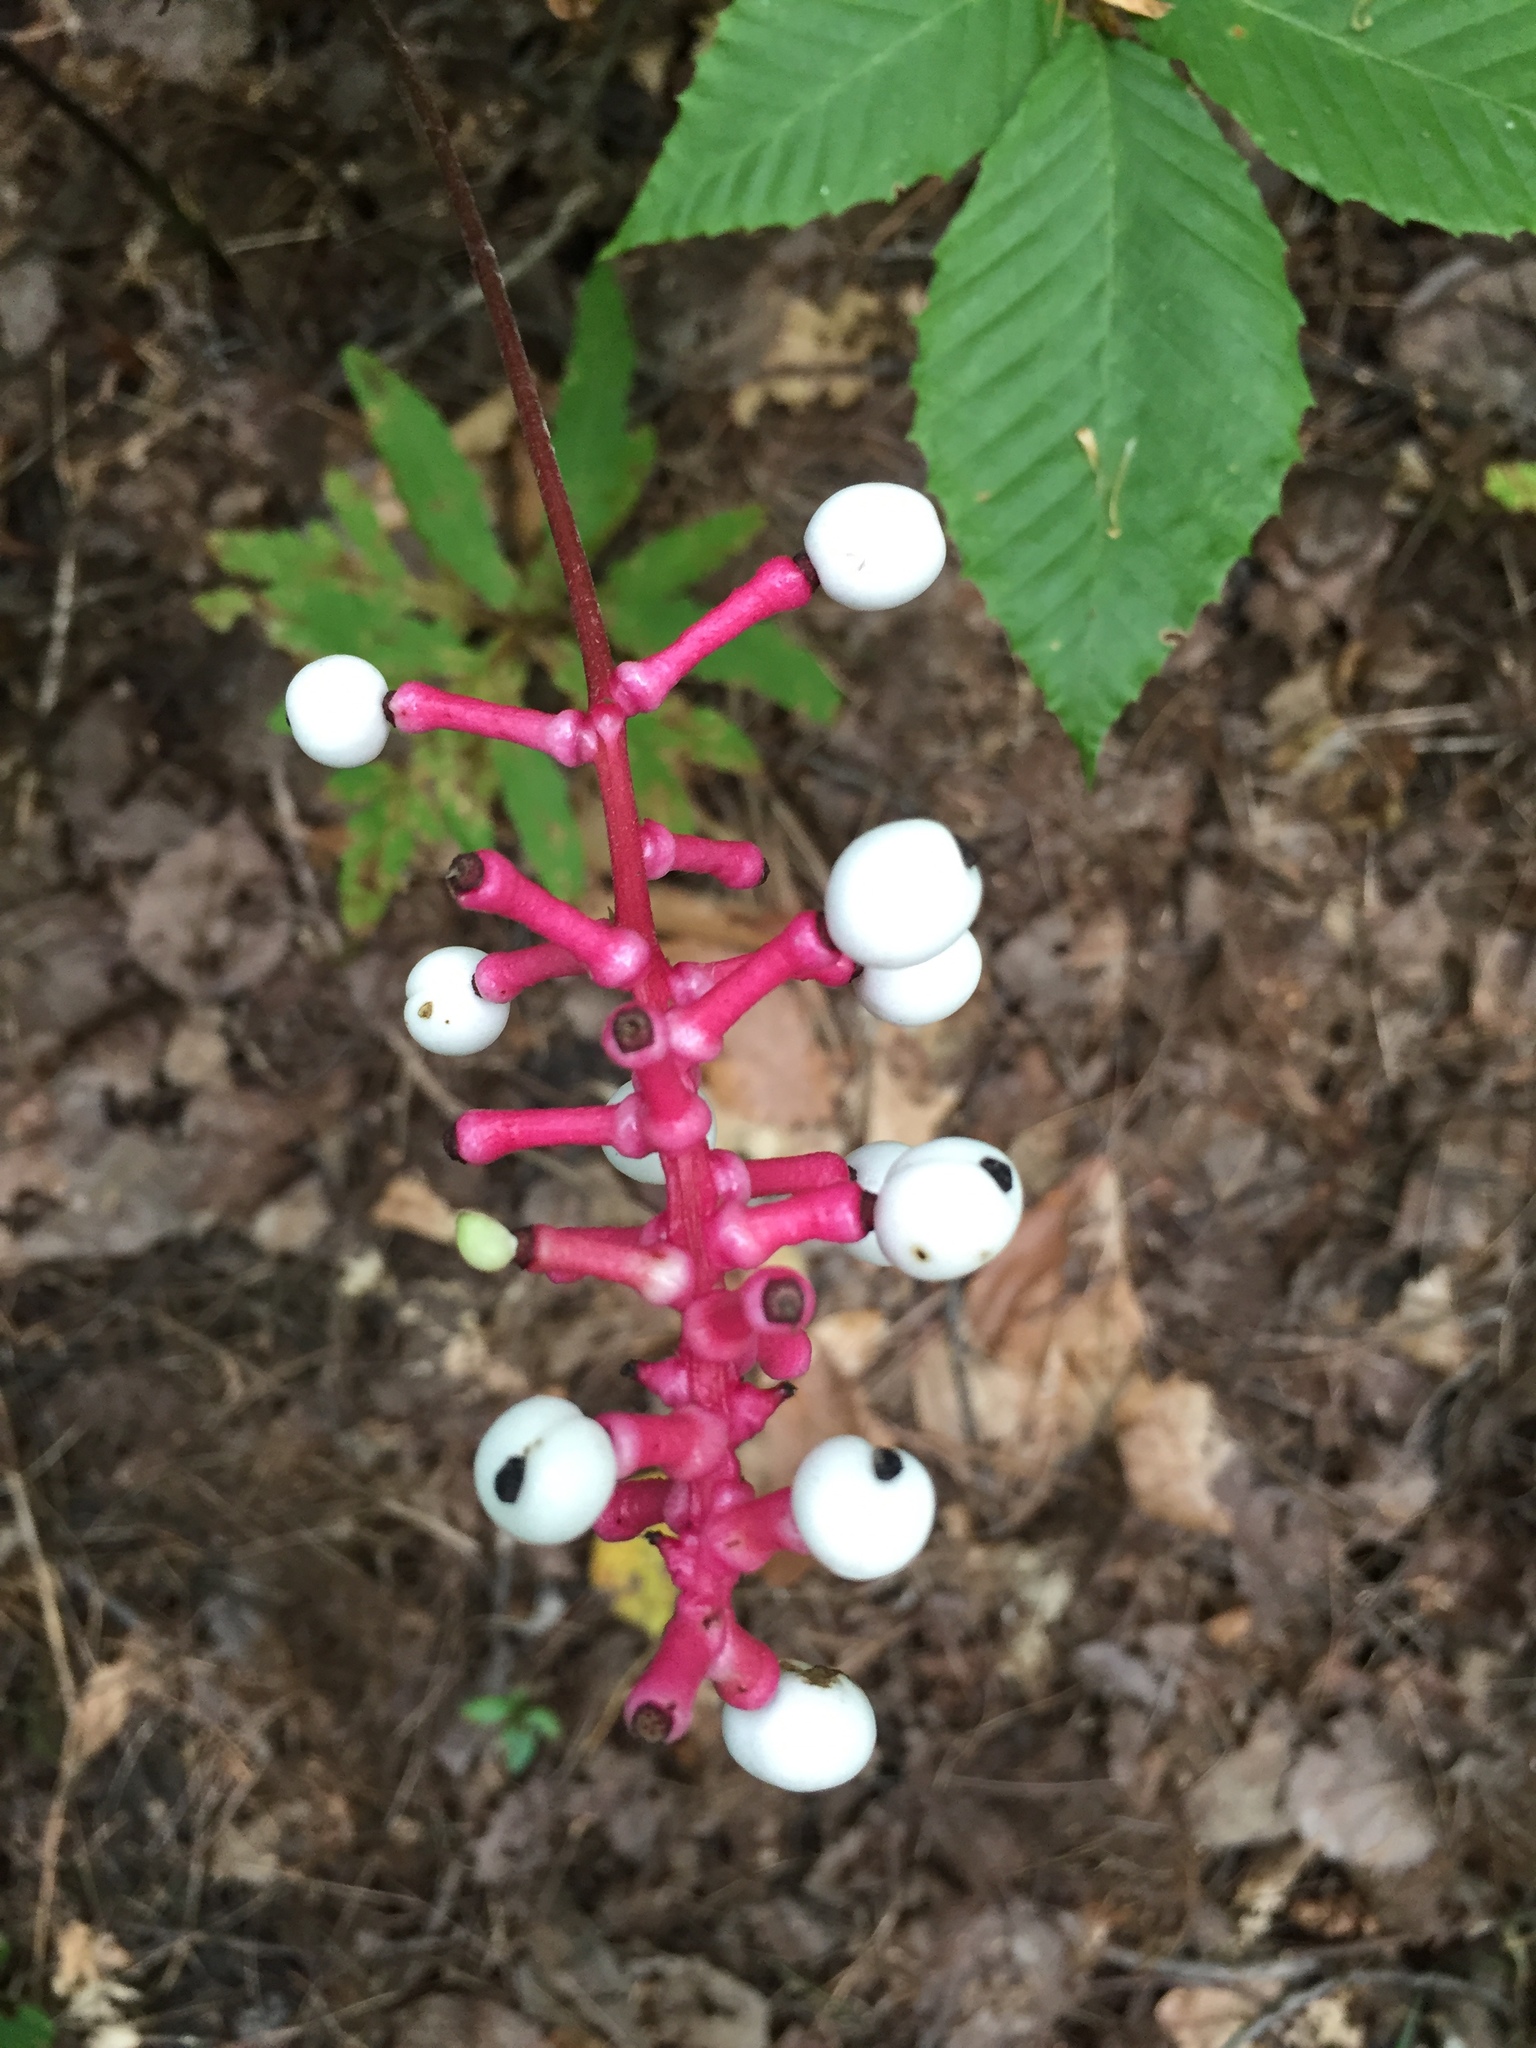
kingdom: Plantae
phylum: Tracheophyta
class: Magnoliopsida
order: Ranunculales
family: Ranunculaceae
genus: Actaea
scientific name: Actaea pachypoda
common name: Doll's-eyes
